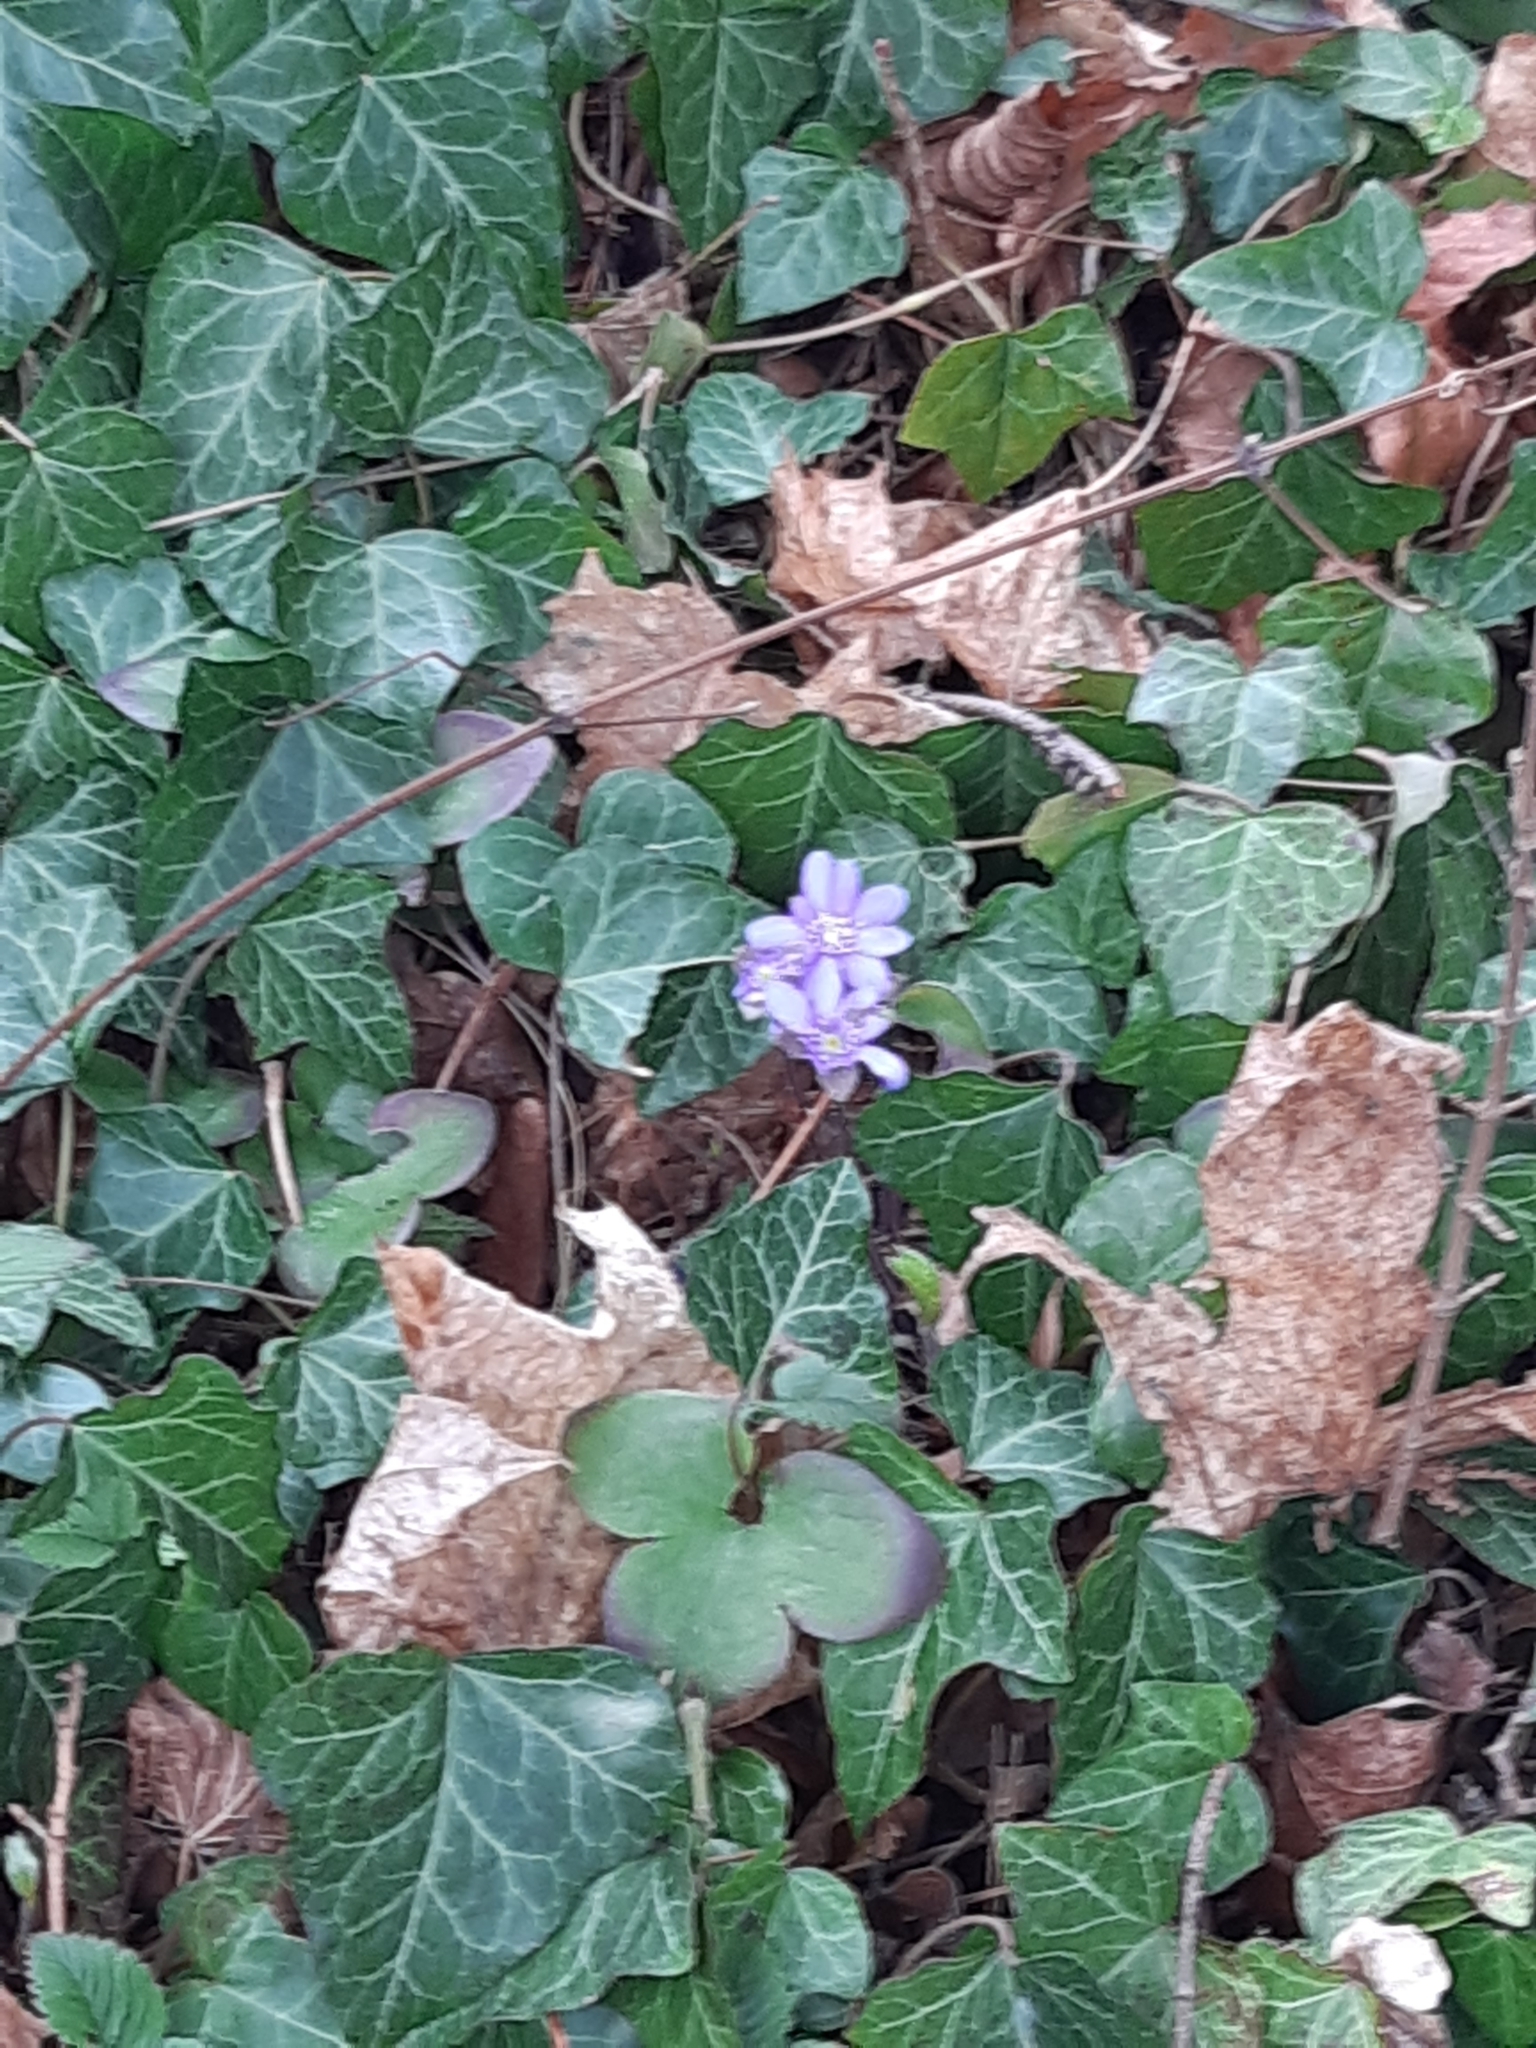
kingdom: Plantae
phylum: Tracheophyta
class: Magnoliopsida
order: Ranunculales
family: Ranunculaceae
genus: Hepatica
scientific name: Hepatica nobilis
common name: Liverleaf
